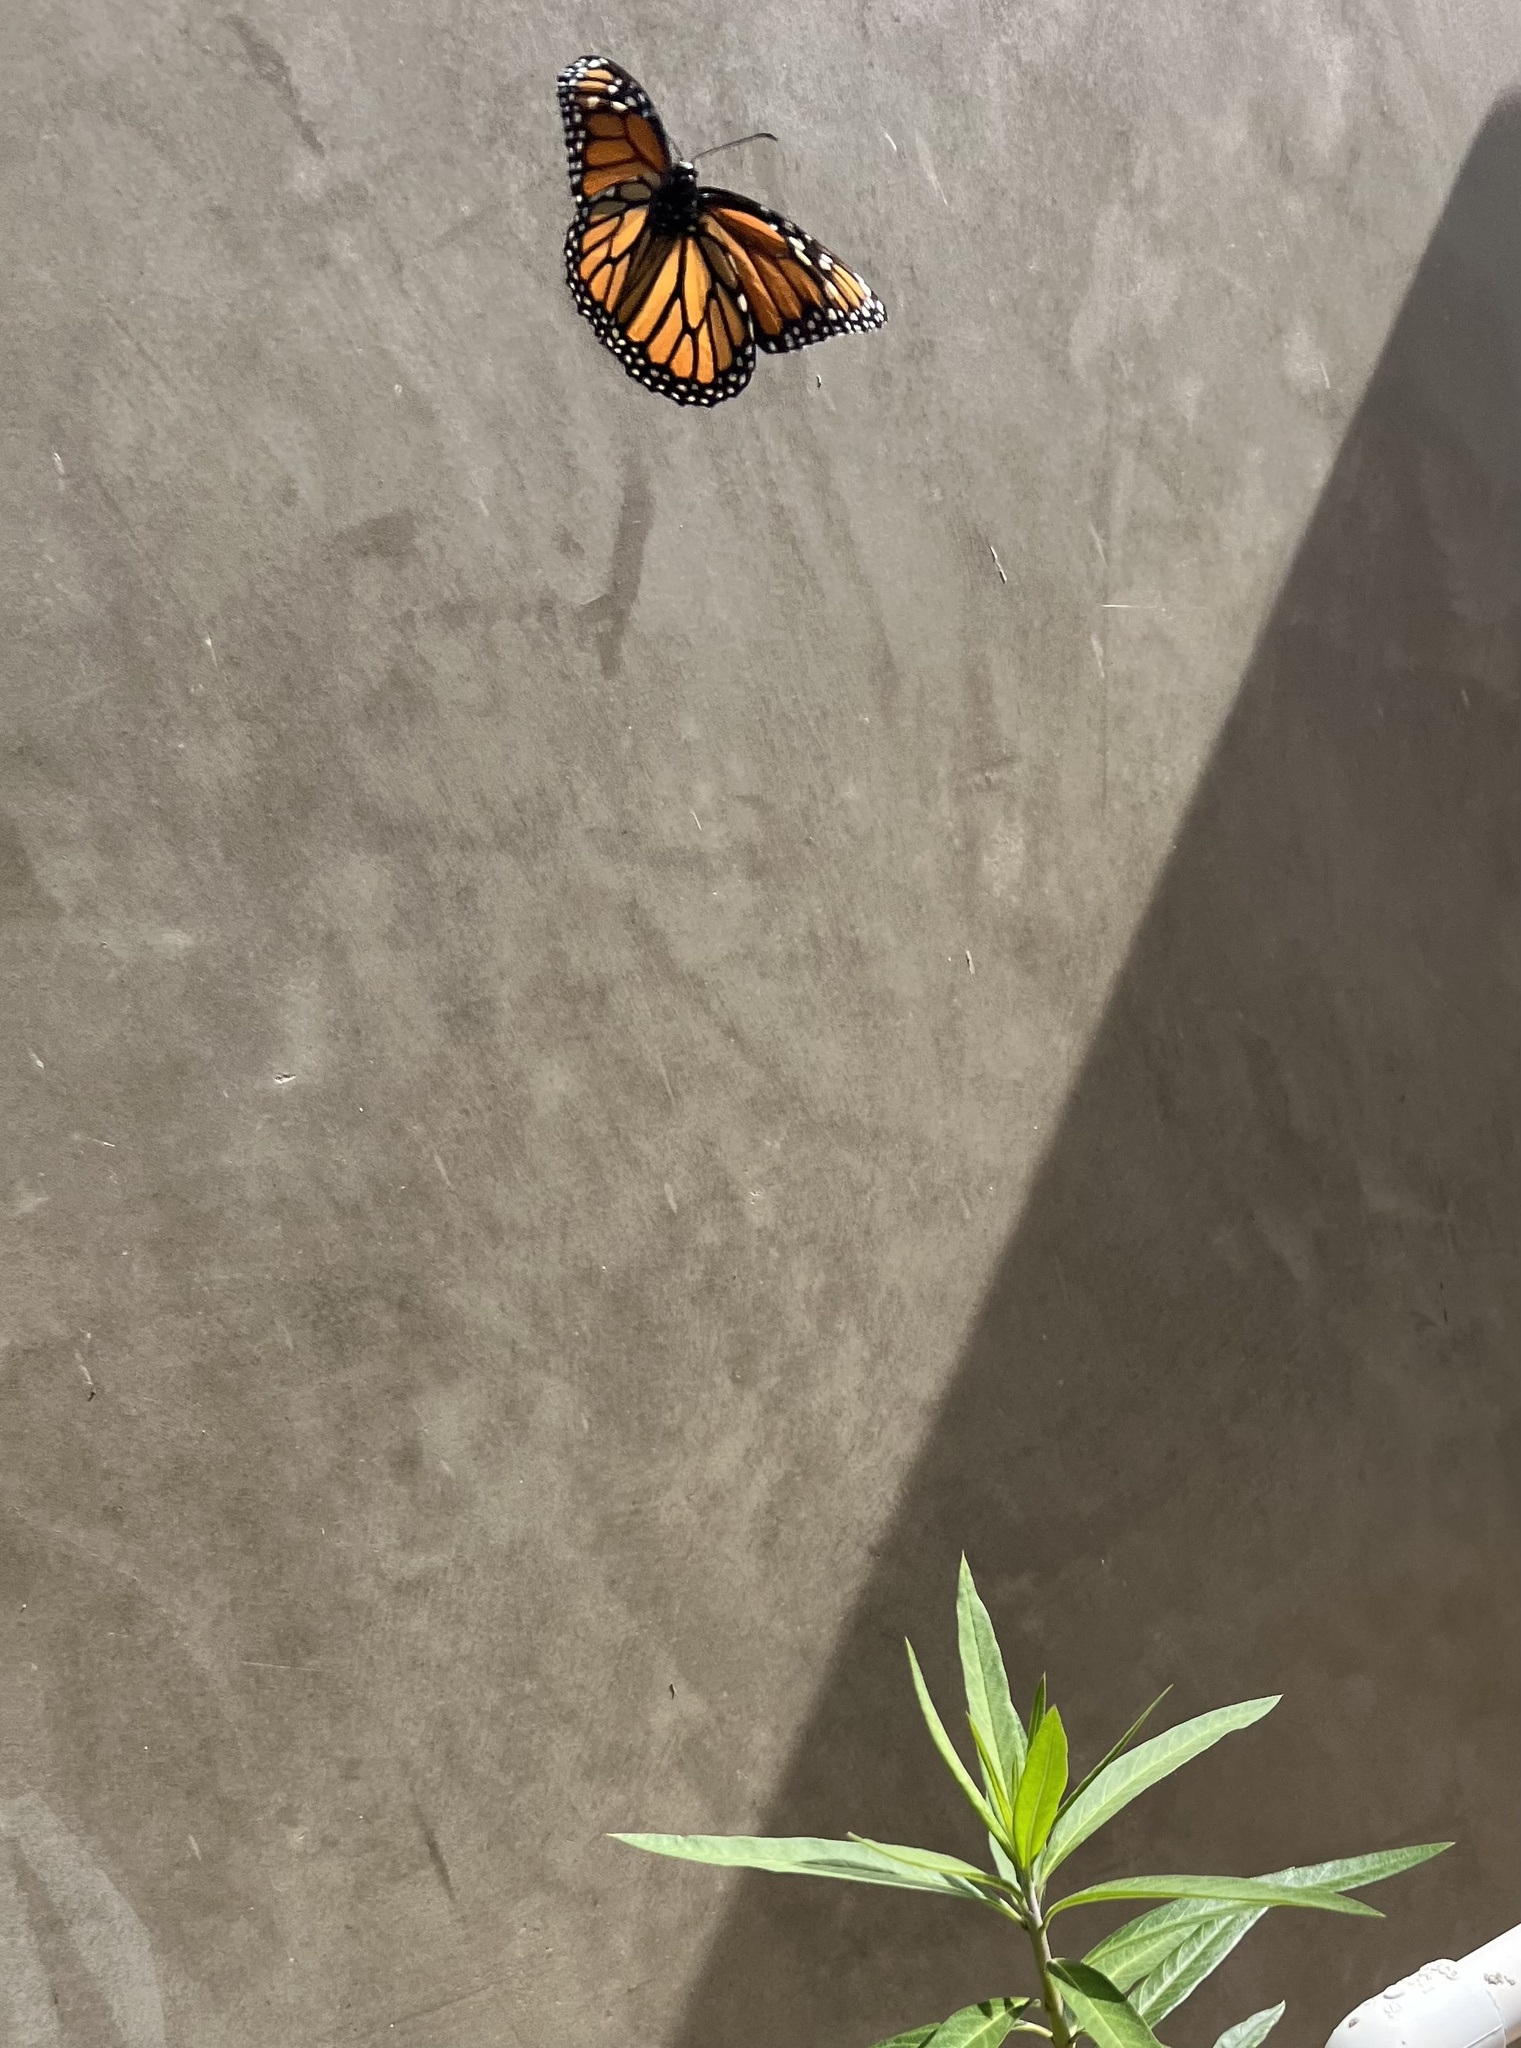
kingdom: Animalia
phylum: Arthropoda
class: Insecta
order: Lepidoptera
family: Nymphalidae
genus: Danaus
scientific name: Danaus plexippus
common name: Monarch
